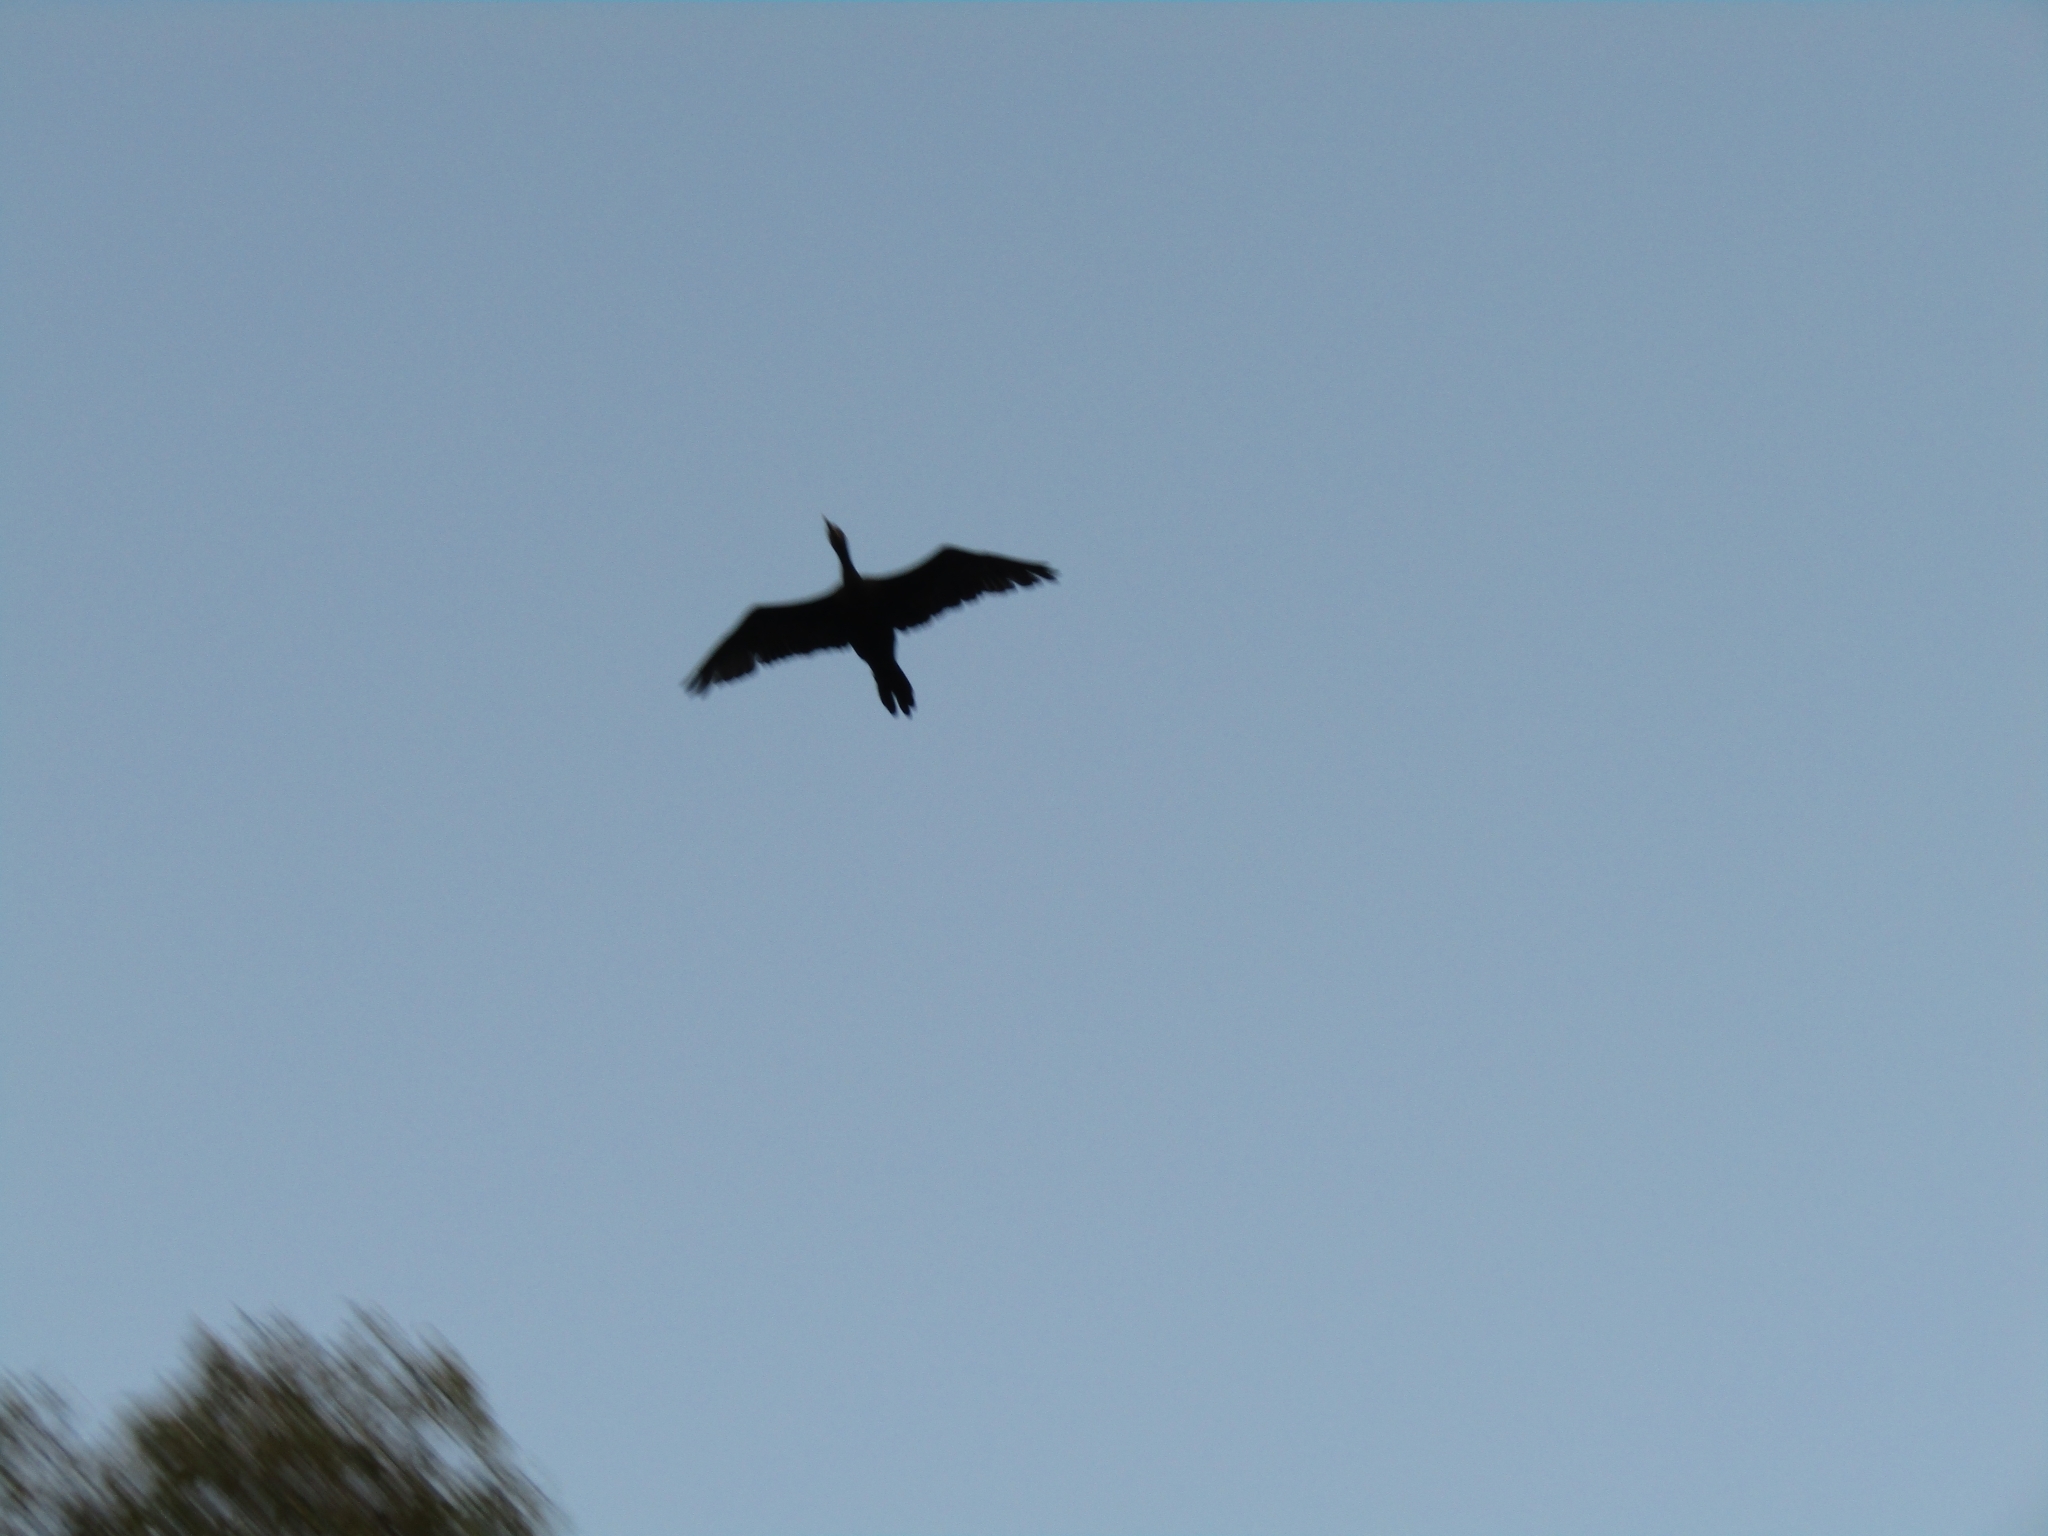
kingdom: Animalia
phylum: Chordata
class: Aves
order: Suliformes
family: Phalacrocoracidae
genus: Phalacrocorax
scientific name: Phalacrocorax brasilianus
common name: Neotropic cormorant
